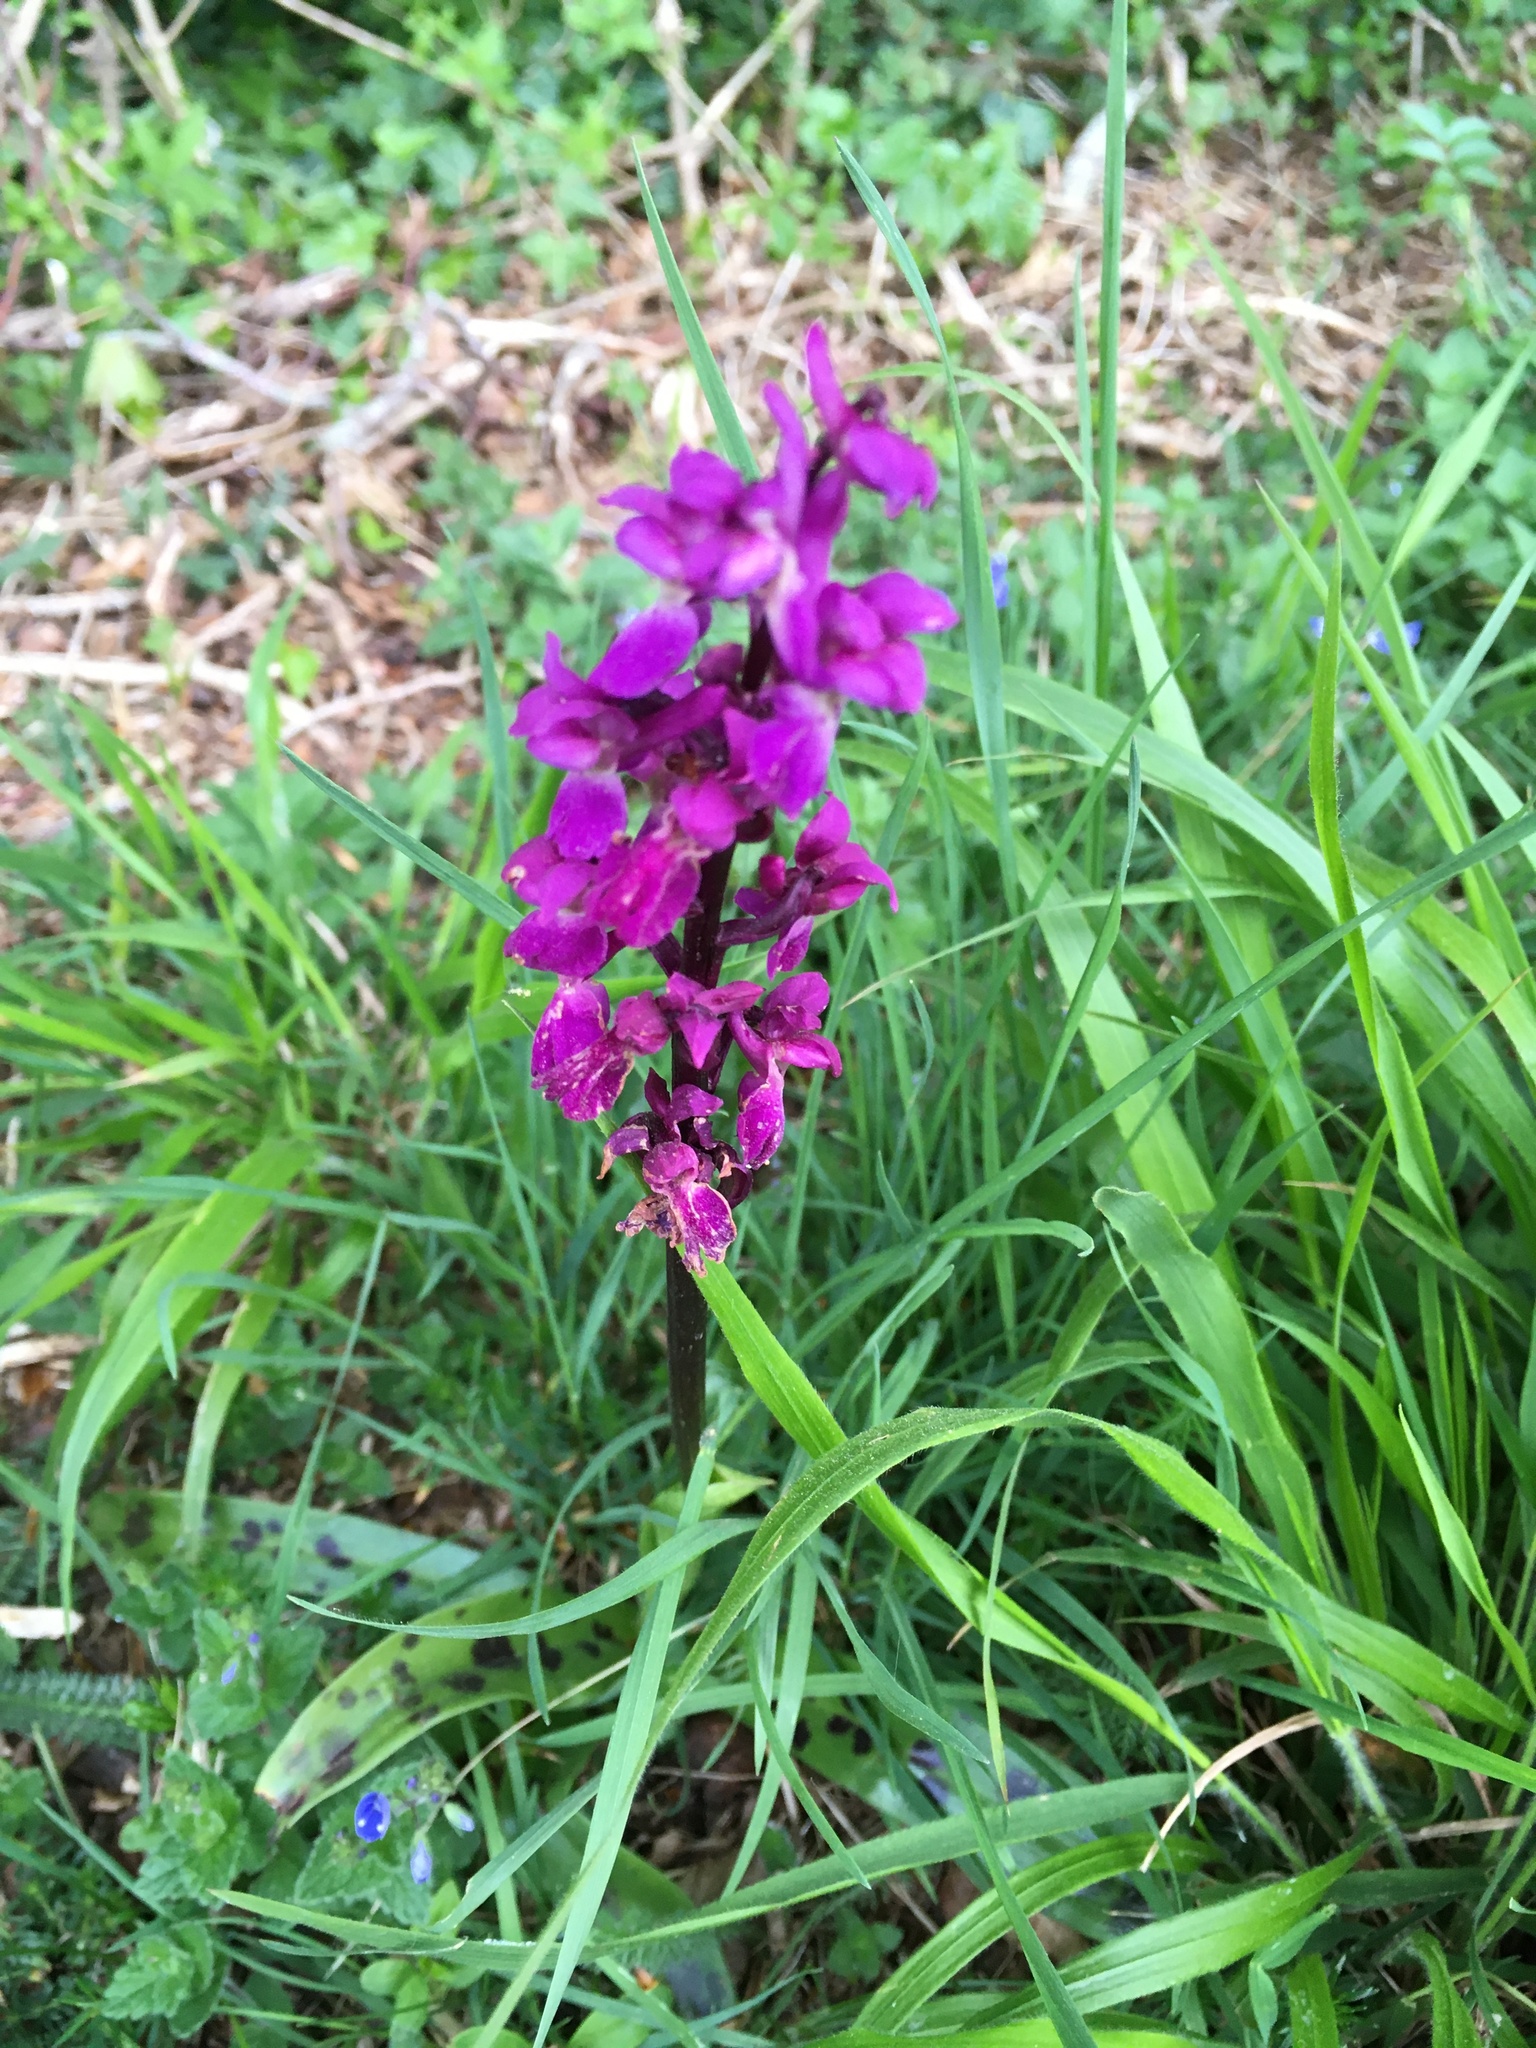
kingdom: Plantae
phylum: Tracheophyta
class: Liliopsida
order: Asparagales
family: Orchidaceae
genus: Orchis
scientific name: Orchis mascula
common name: Early-purple orchid
